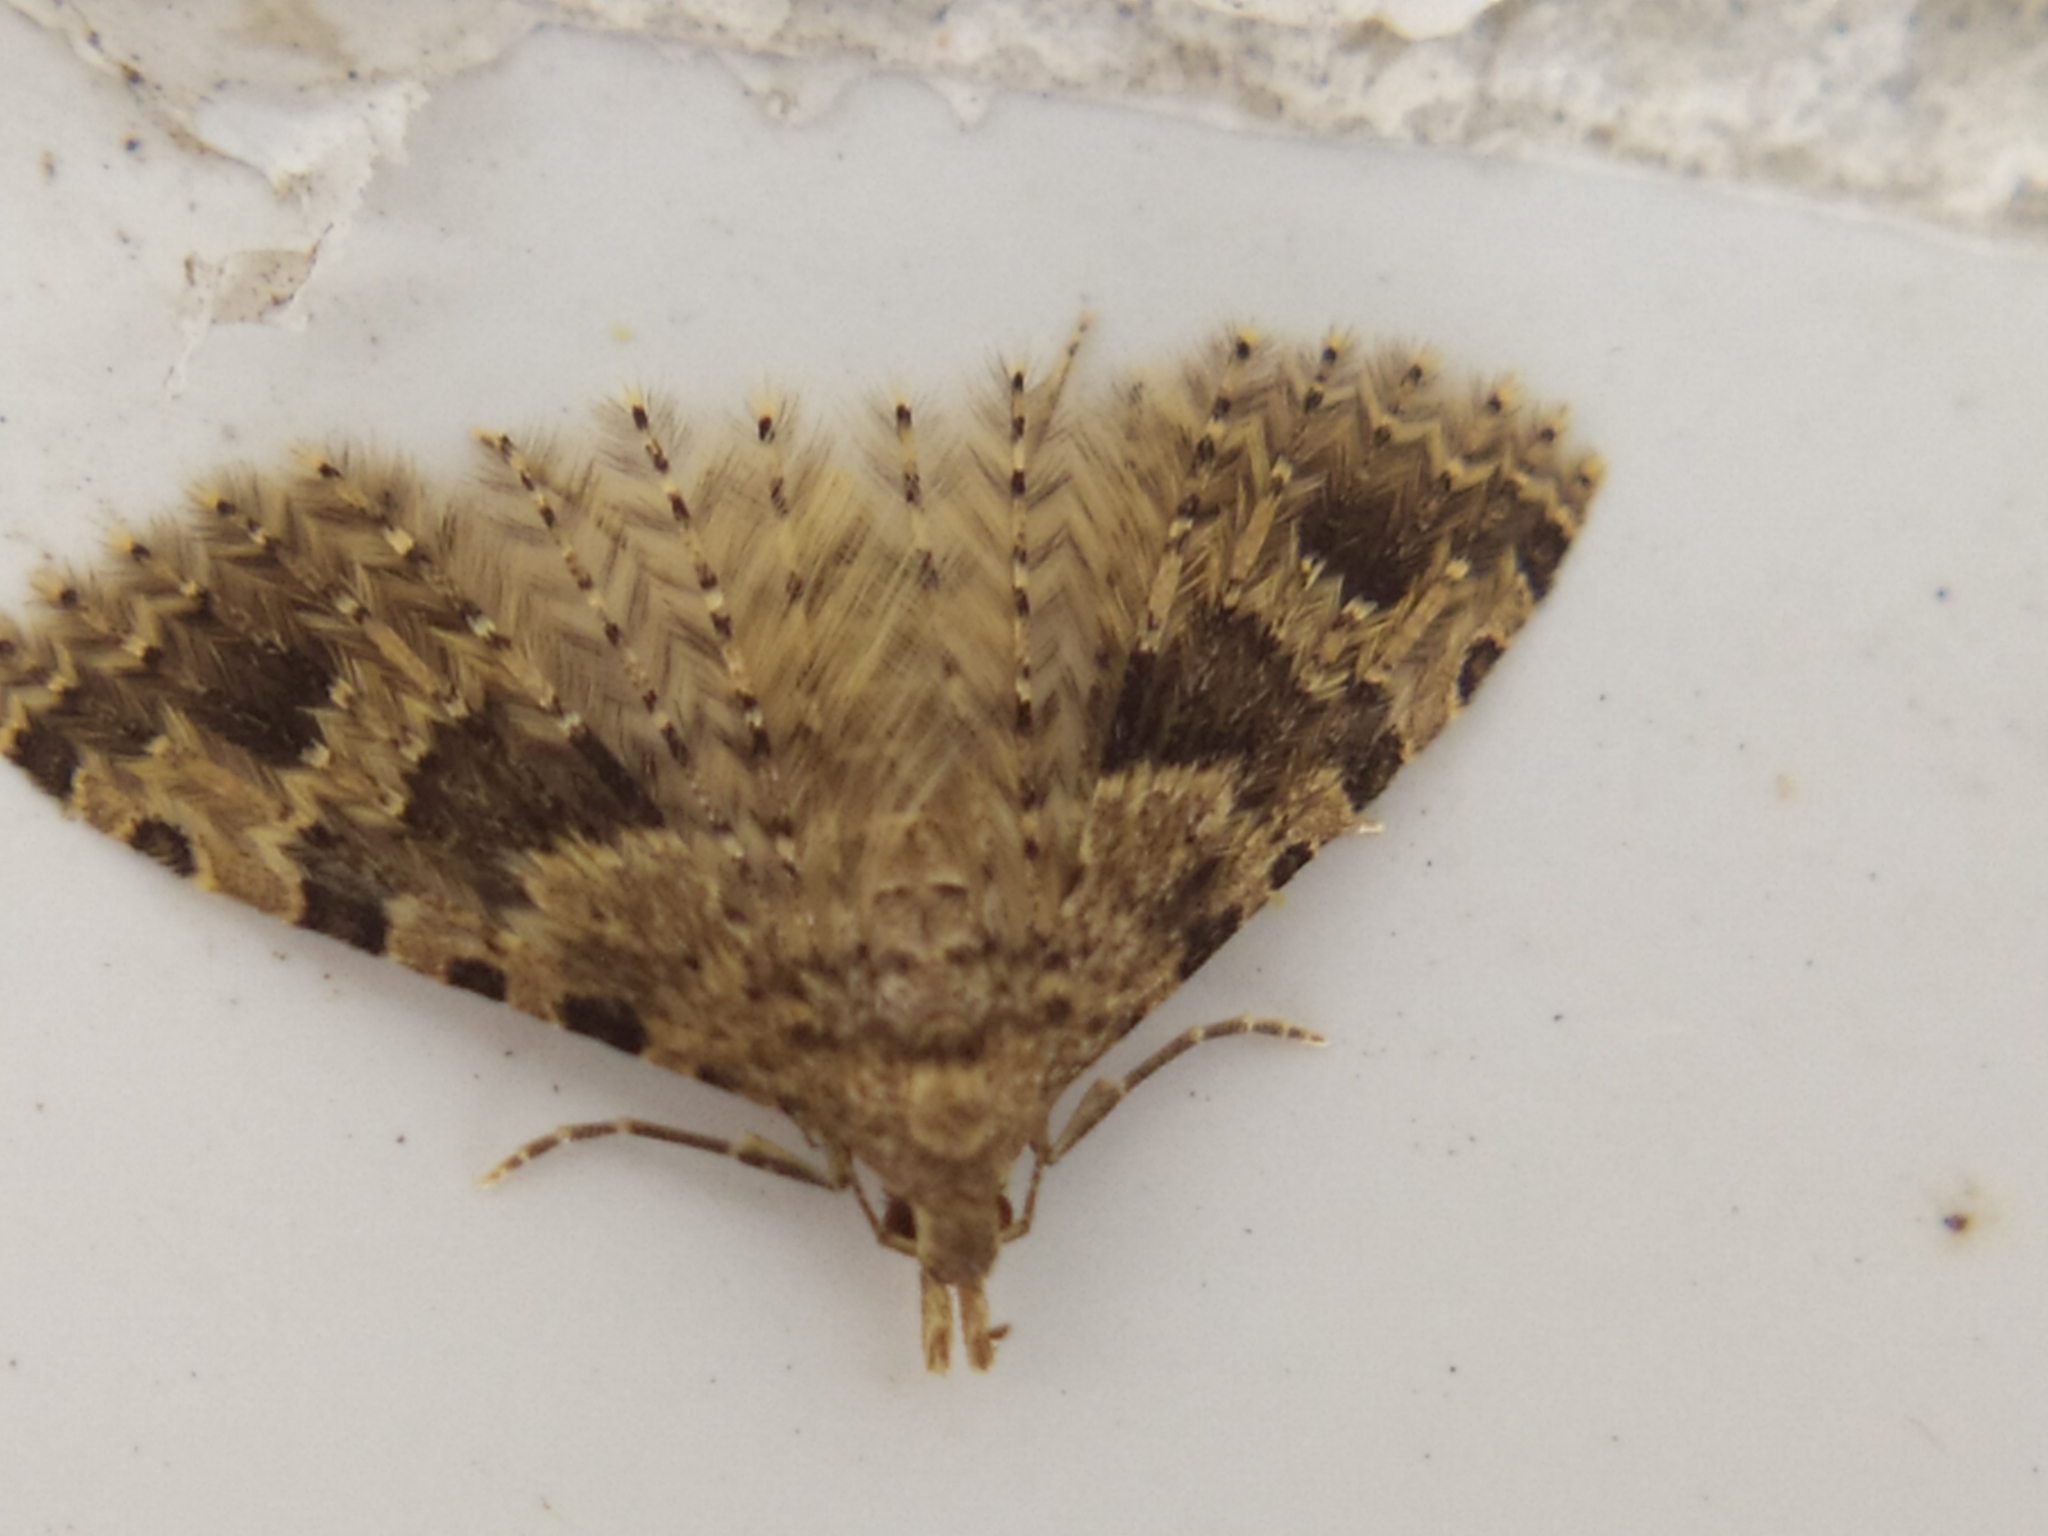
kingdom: Animalia
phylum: Arthropoda
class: Insecta
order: Lepidoptera
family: Alucitidae
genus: Alucita
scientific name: Alucita hexadactyla
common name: Twenty-plume moth
